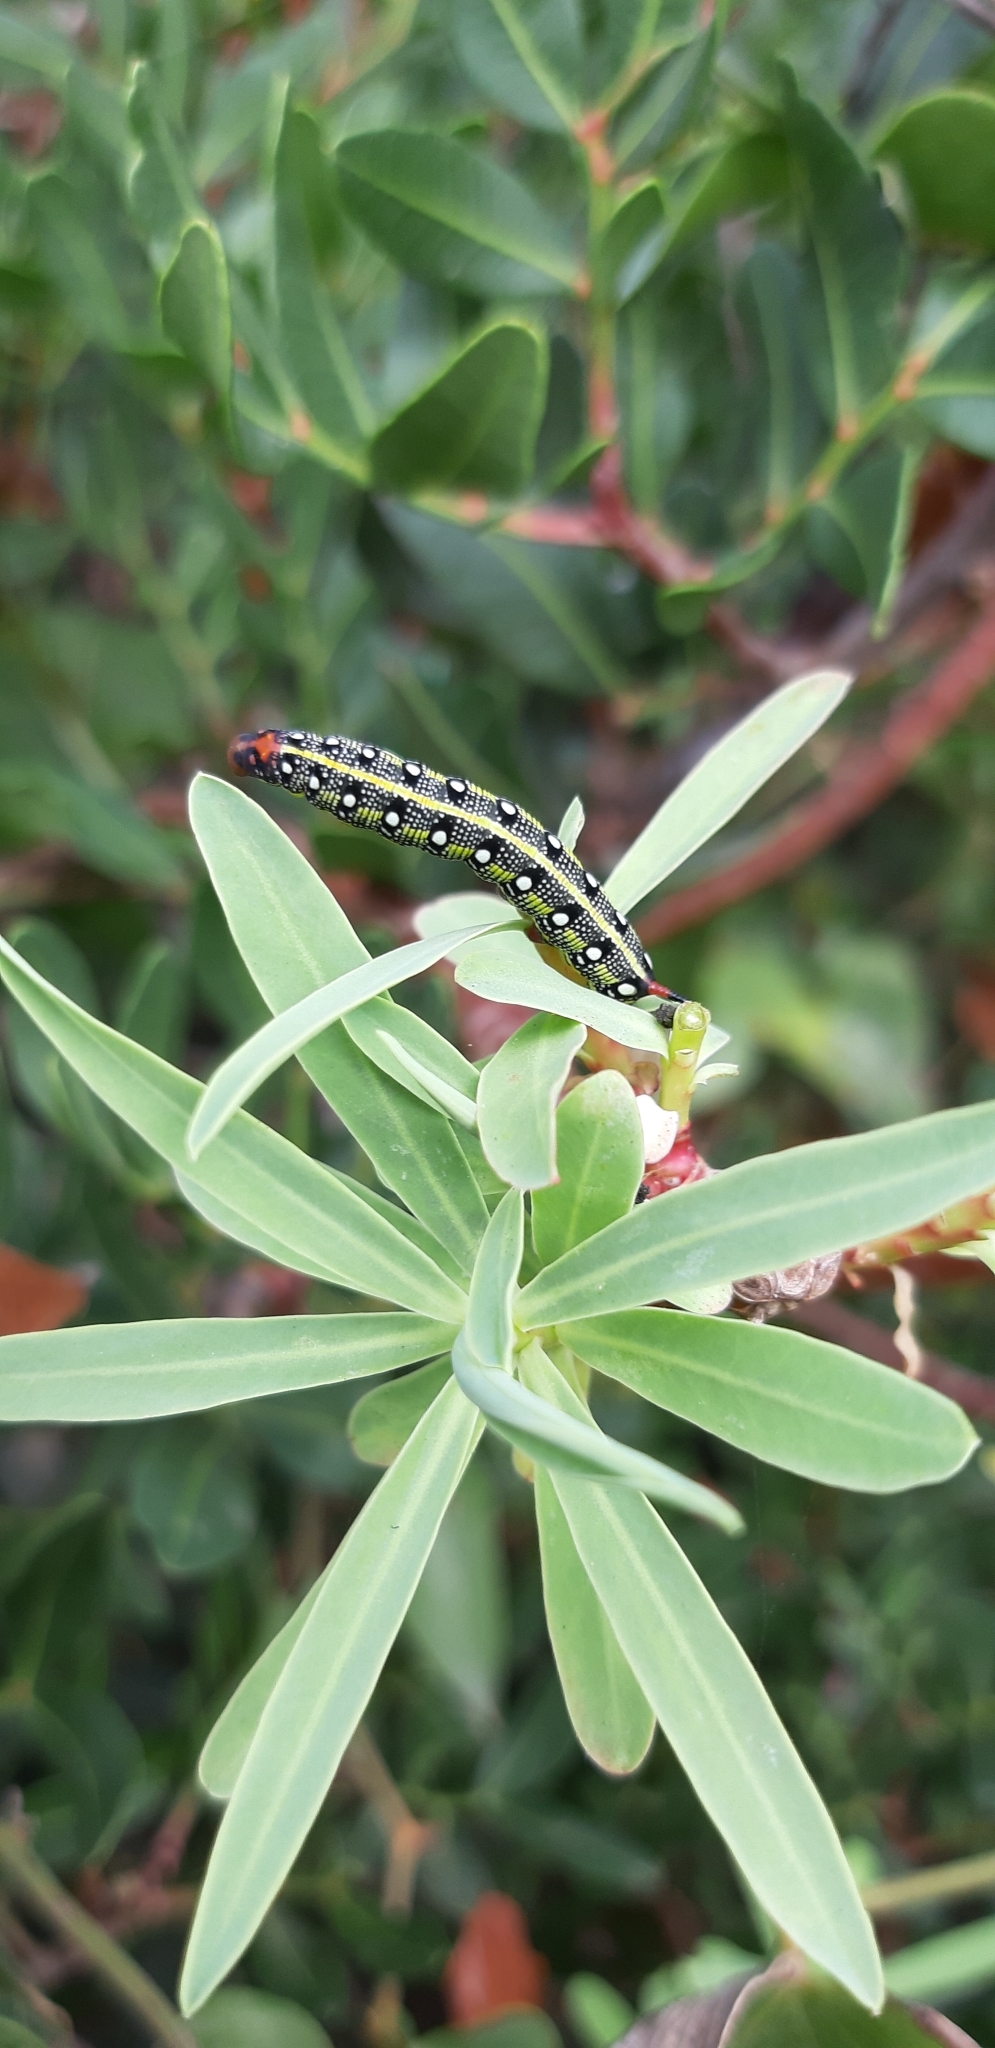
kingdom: Animalia
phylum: Arthropoda
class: Insecta
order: Lepidoptera
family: Sphingidae
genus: Hyles
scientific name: Hyles euphorbiae
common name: Spurge hawk-moth
